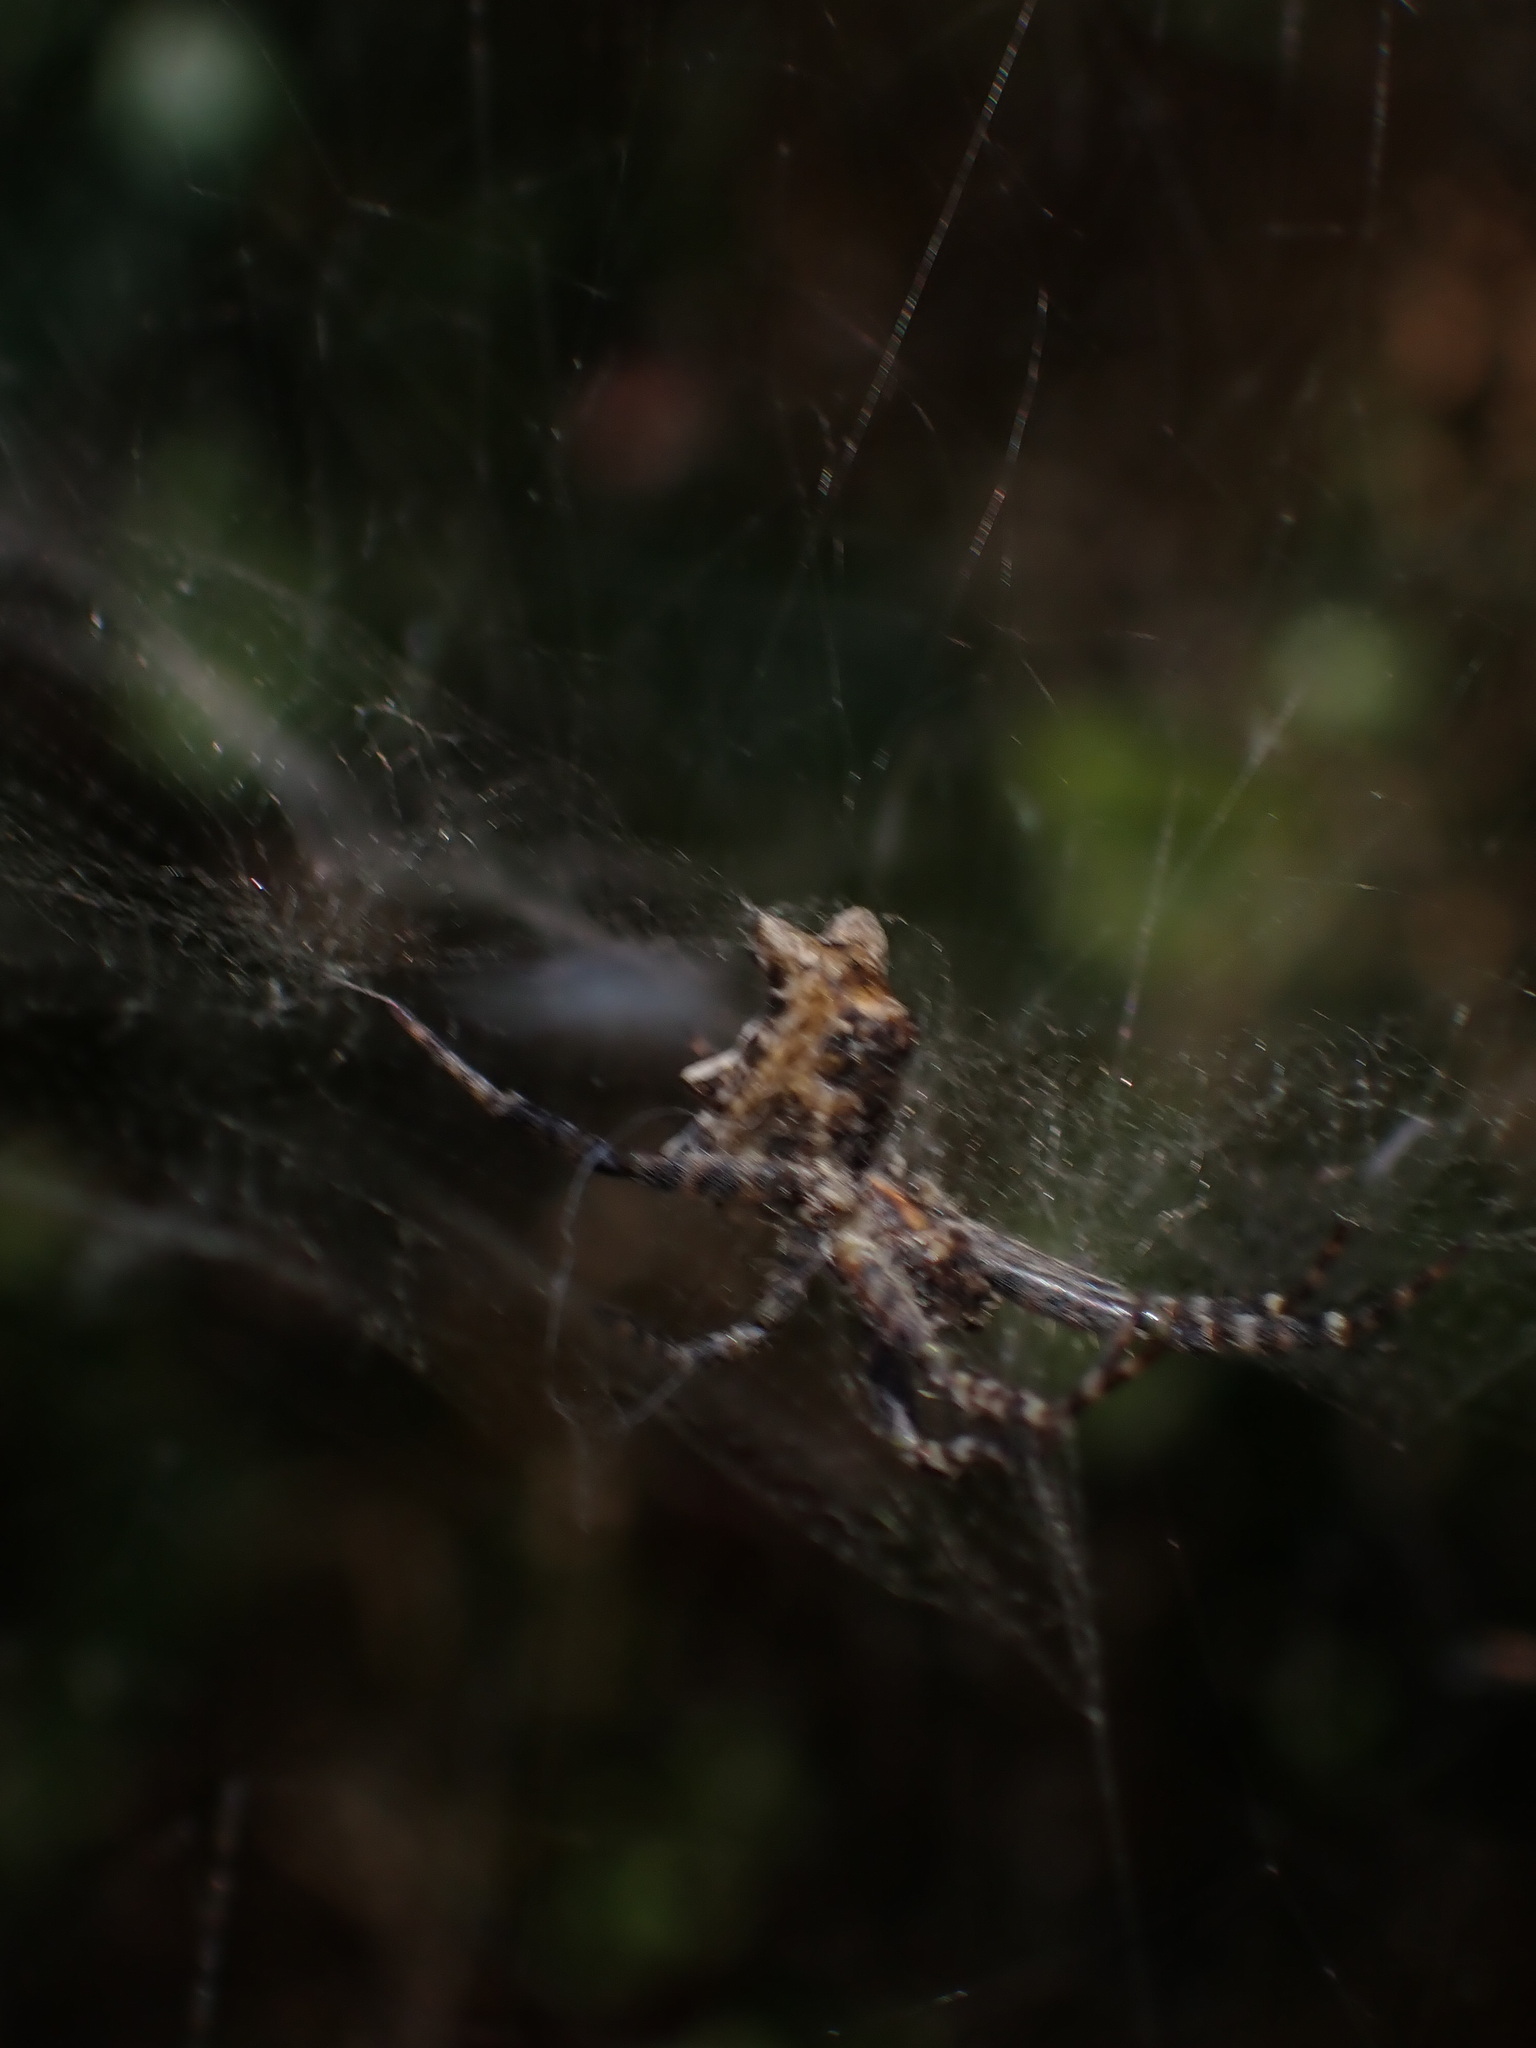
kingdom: Animalia
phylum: Arthropoda
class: Arachnida
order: Araneae
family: Araneidae
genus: Cyrtophora
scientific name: Cyrtophora citricola
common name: Orb weavers
